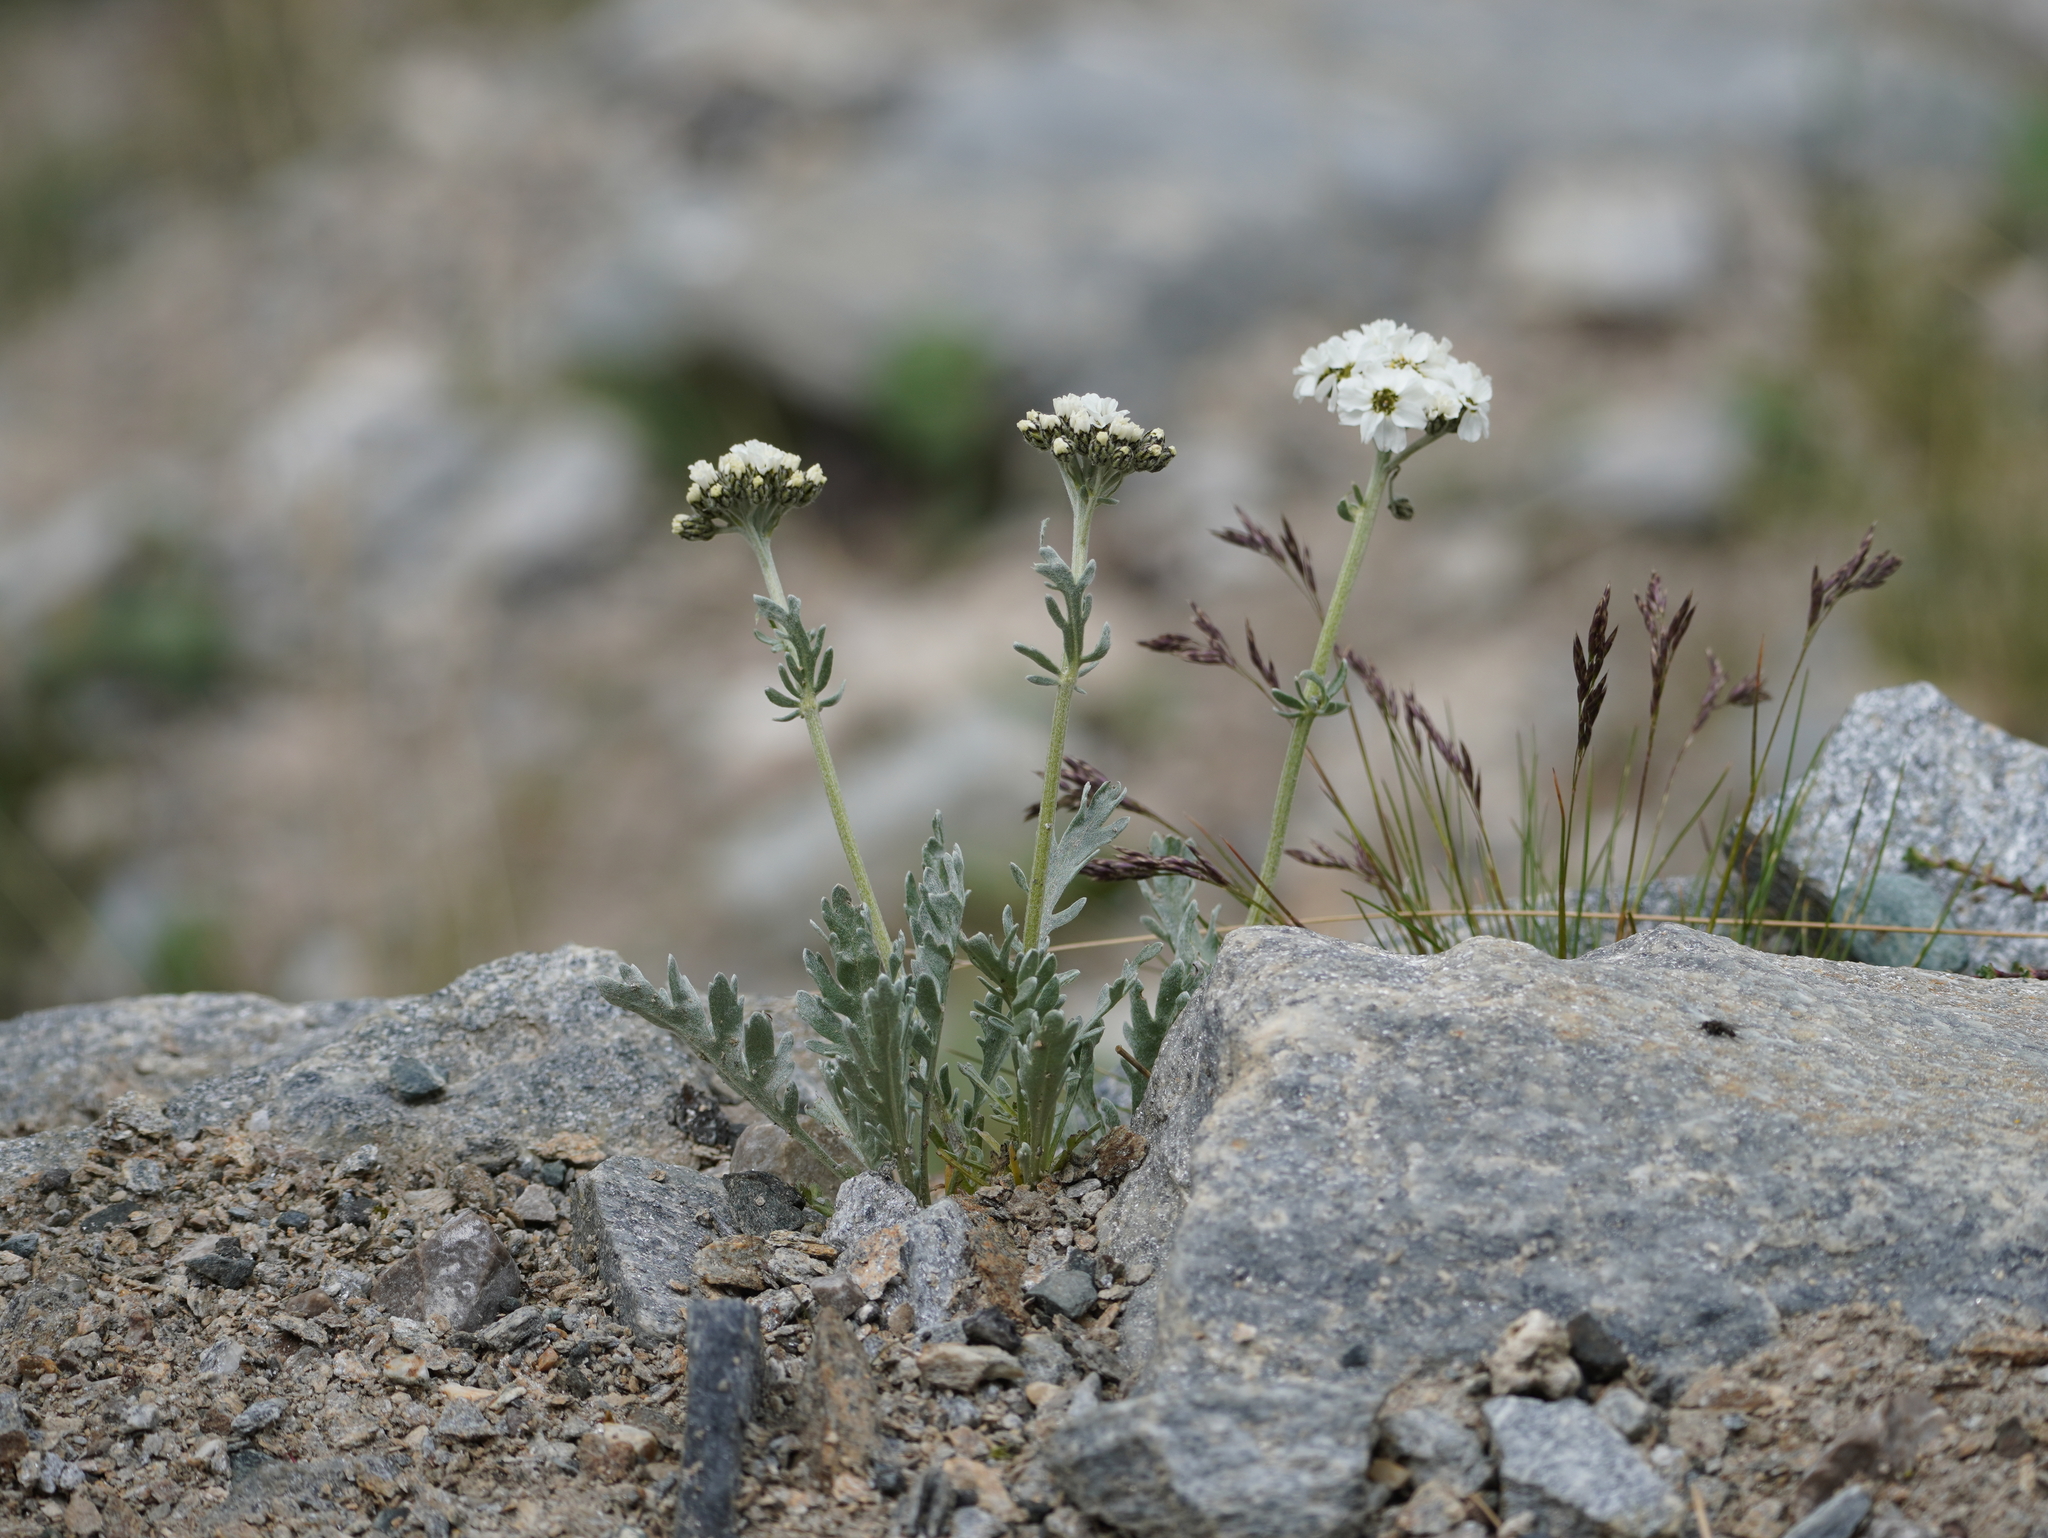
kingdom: Plantae
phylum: Tracheophyta
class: Magnoliopsida
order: Asterales
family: Asteraceae
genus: Achillea
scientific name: Achillea clavennae
